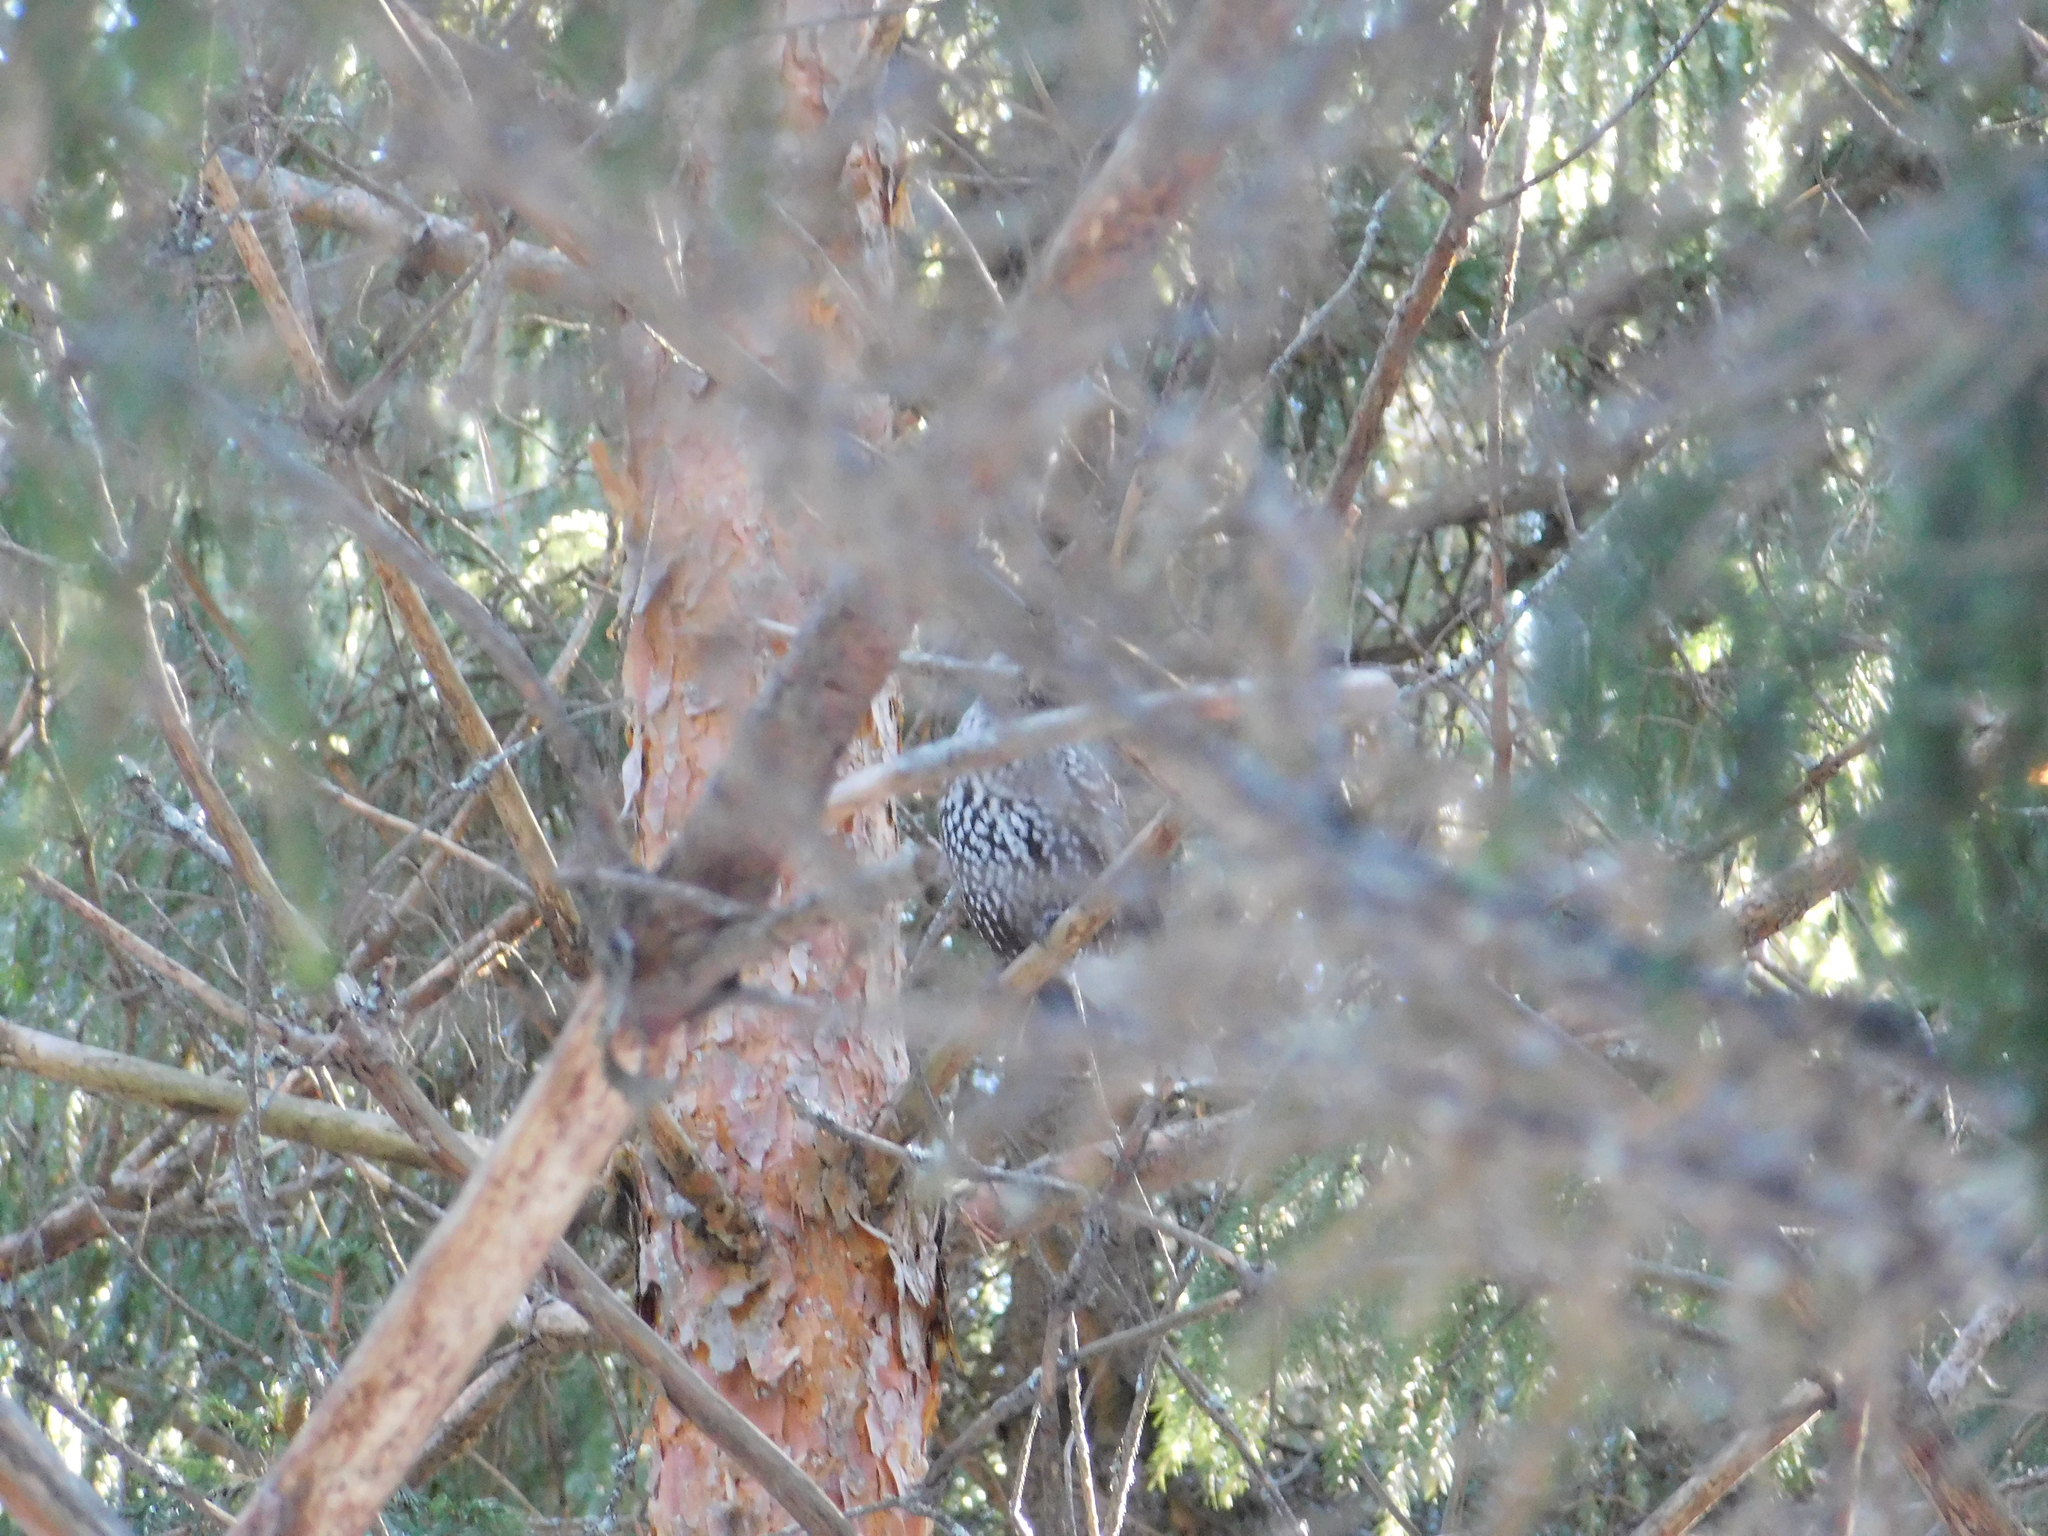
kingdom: Animalia
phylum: Chordata
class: Aves
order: Passeriformes
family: Corvidae
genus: Nucifraga
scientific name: Nucifraga caryocatactes
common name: Spotted nutcracker
